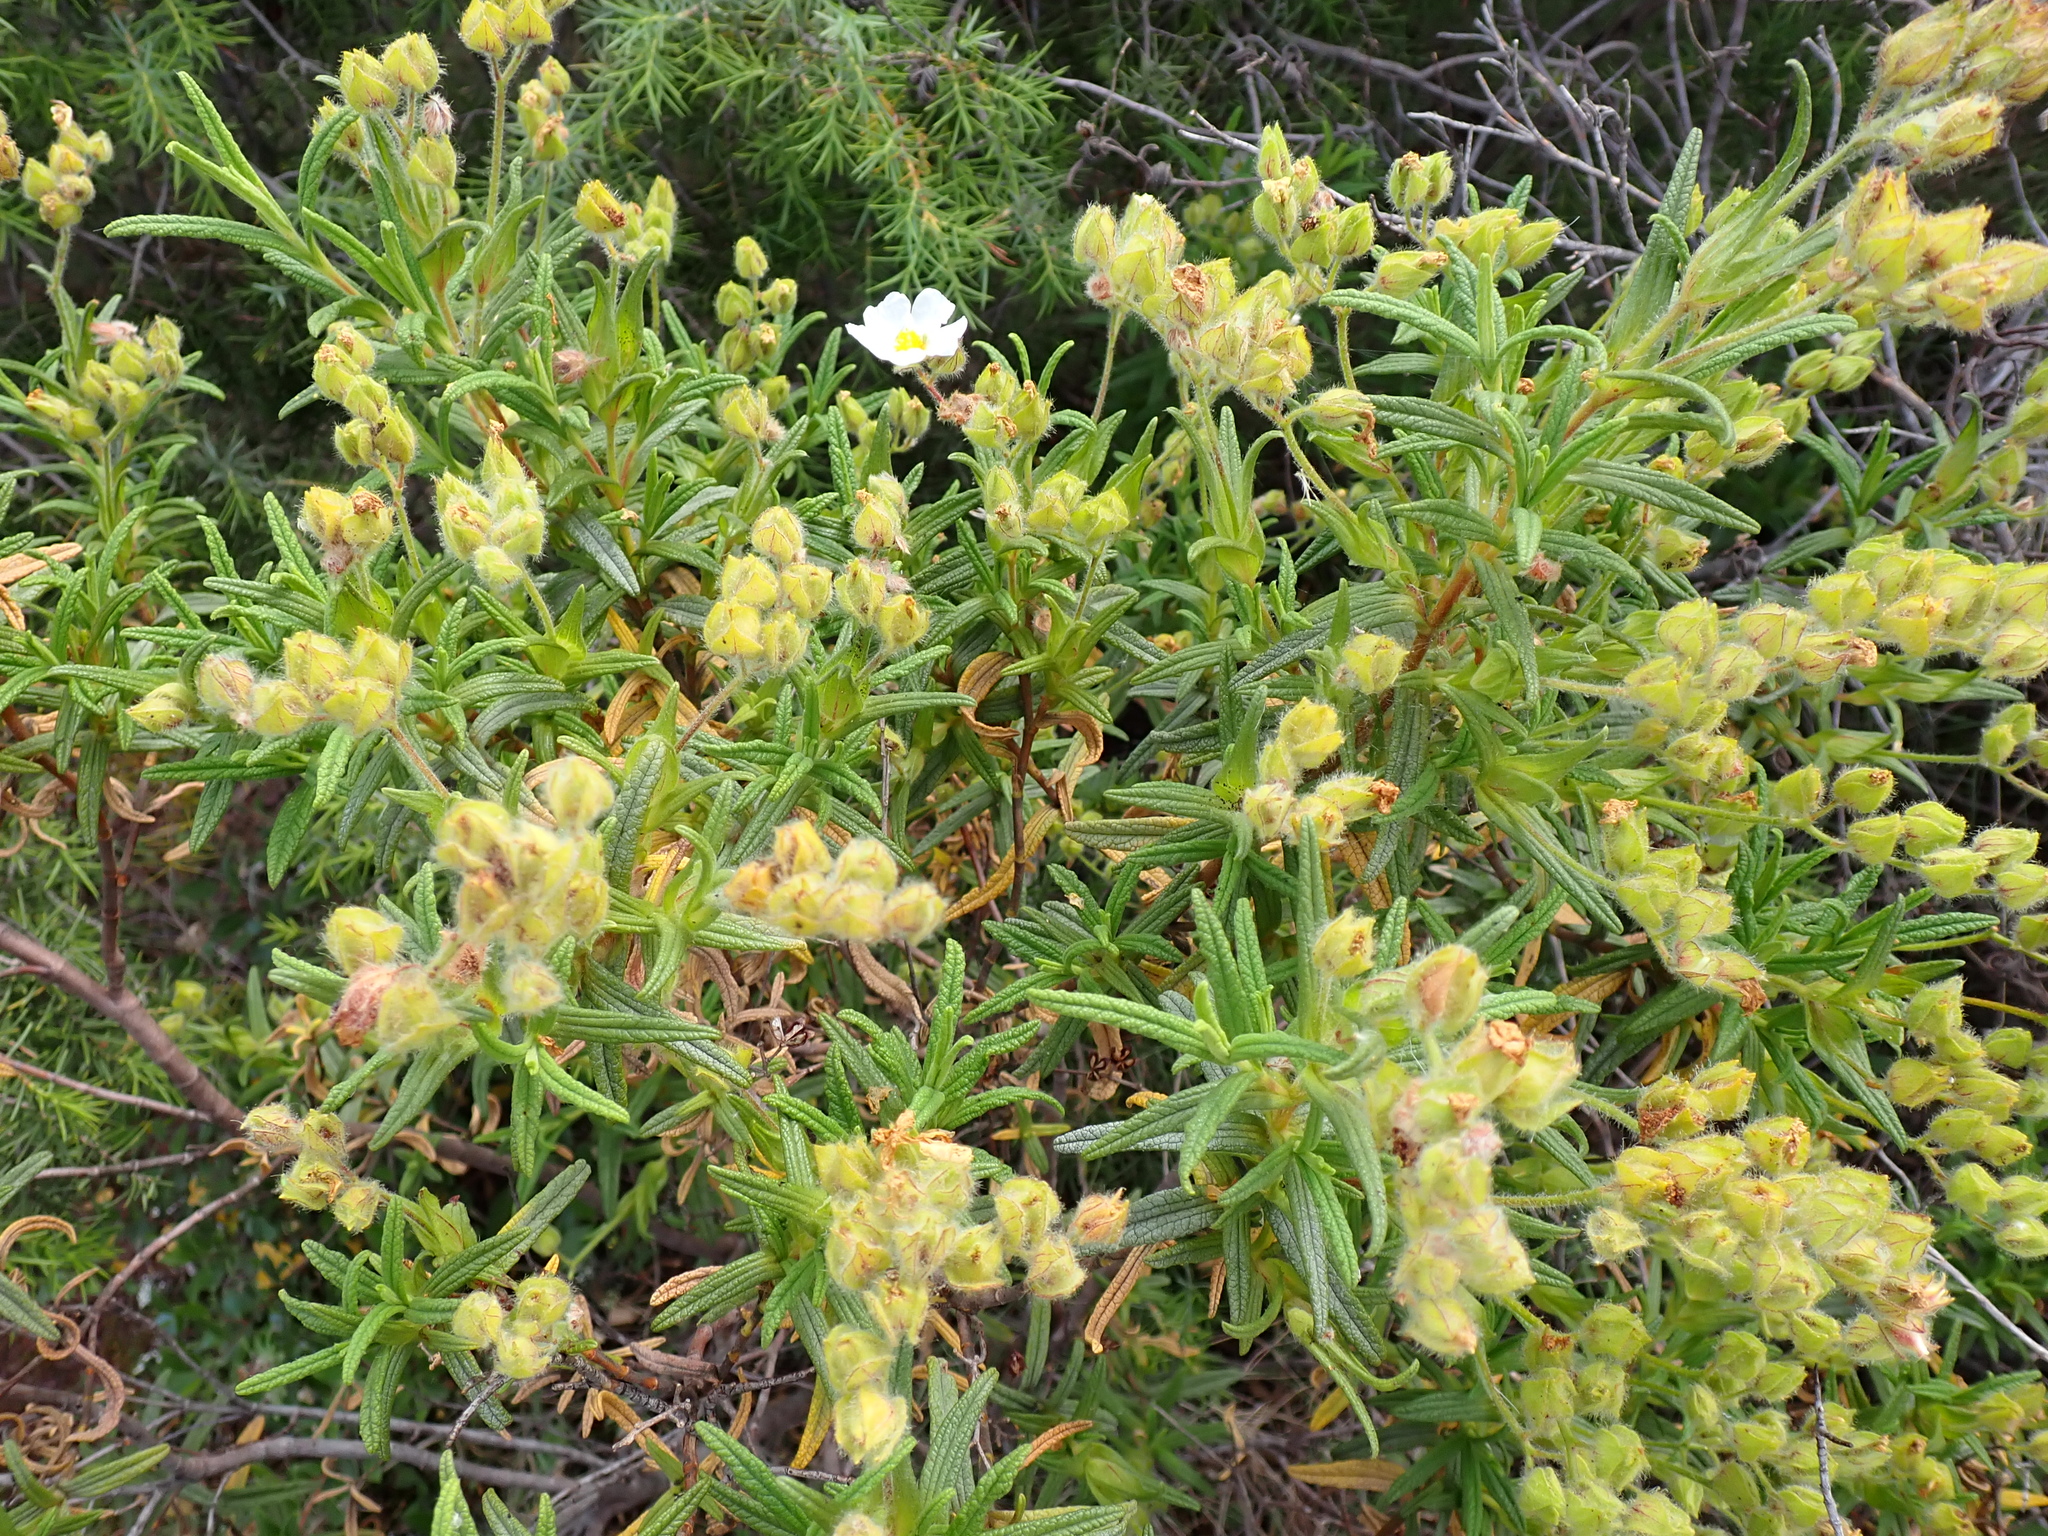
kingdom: Plantae
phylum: Tracheophyta
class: Magnoliopsida
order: Malvales
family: Cistaceae
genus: Cistus
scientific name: Cistus monspeliensis
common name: Montpelier cistus
